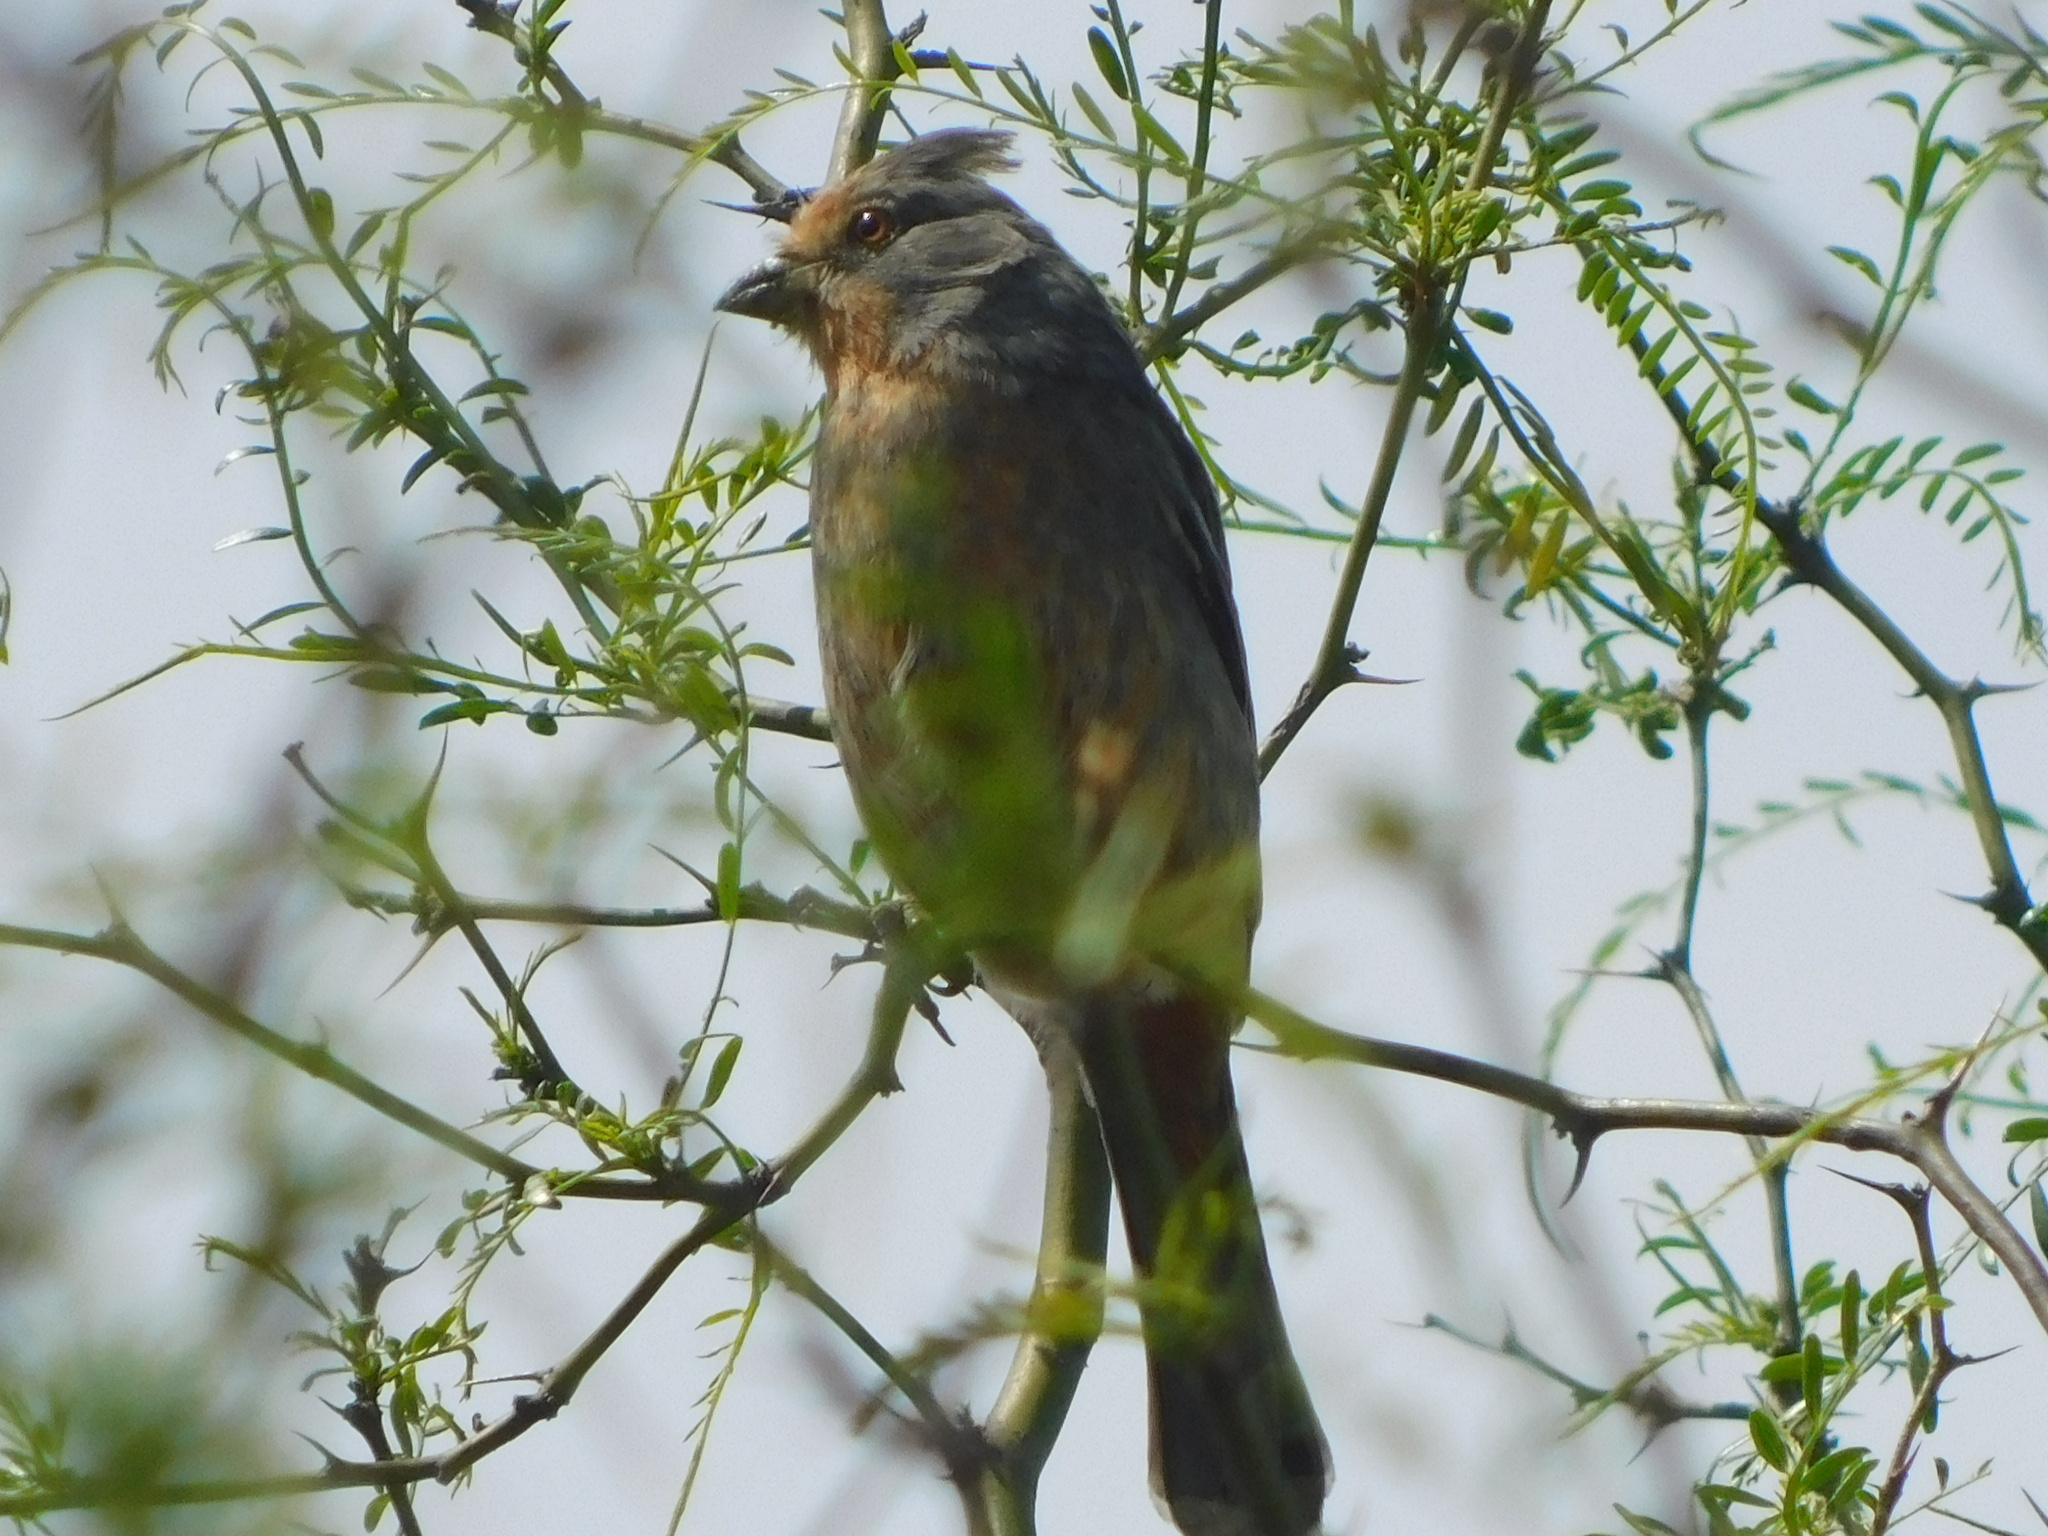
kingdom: Animalia
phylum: Chordata
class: Aves
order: Passeriformes
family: Cotingidae
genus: Phytotoma
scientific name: Phytotoma rutila
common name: White-tipped plantcutter
